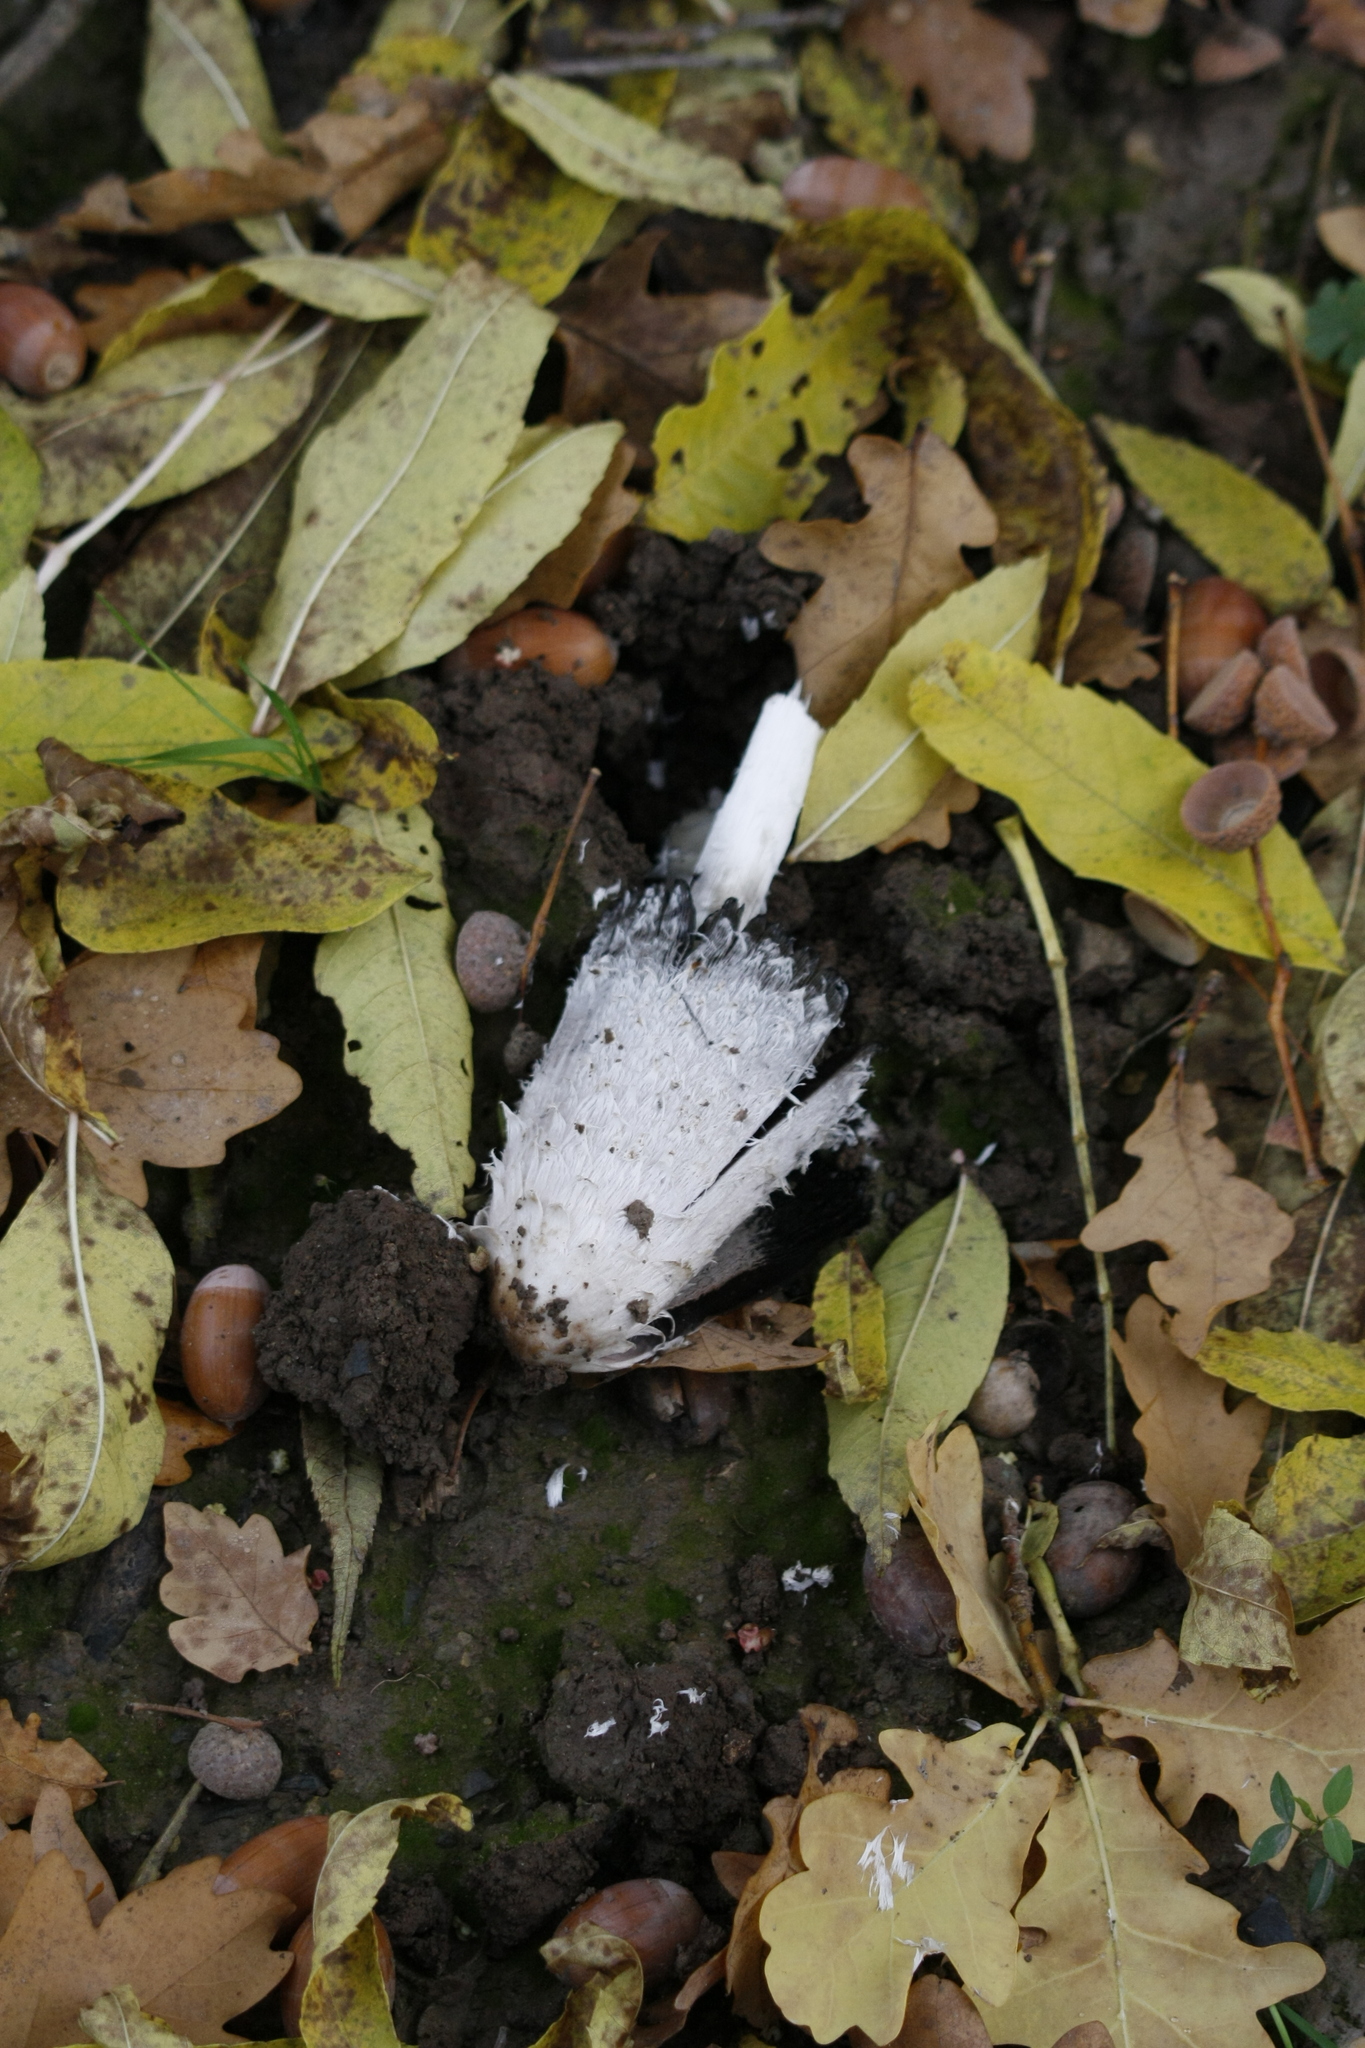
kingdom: Fungi
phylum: Basidiomycota
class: Agaricomycetes
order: Agaricales
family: Agaricaceae
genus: Coprinus
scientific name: Coprinus comatus
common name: Lawyer's wig
